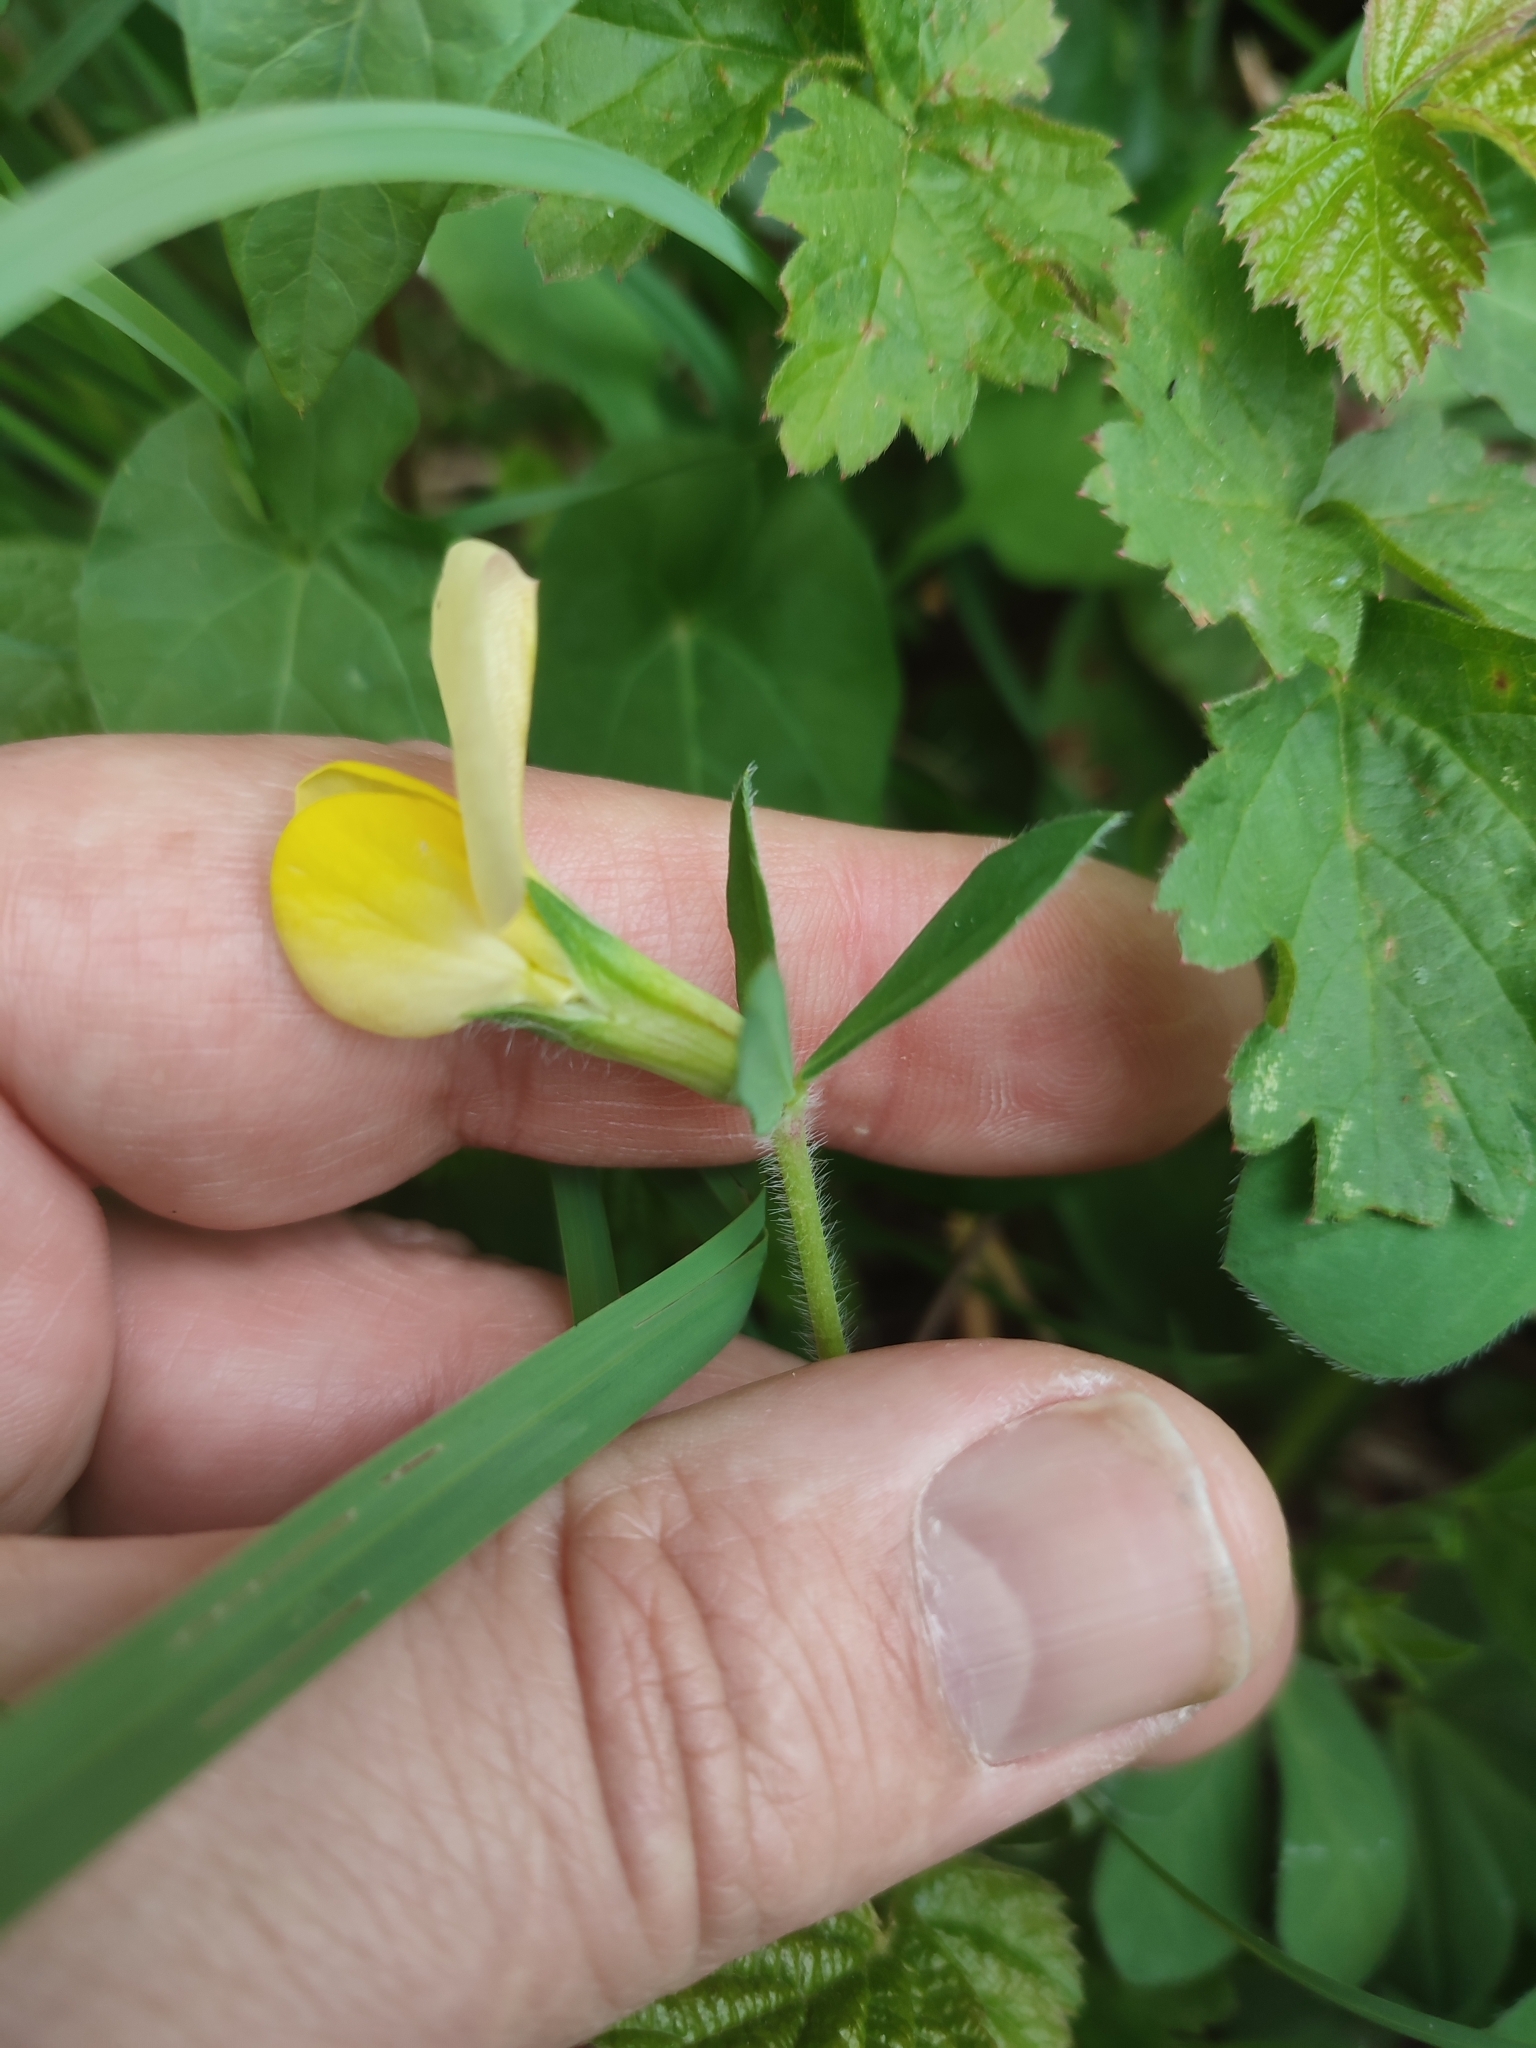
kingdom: Plantae
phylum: Tracheophyta
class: Magnoliopsida
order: Fabales
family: Fabaceae
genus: Lotus
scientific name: Lotus maritimus
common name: Dragon's-teeth
